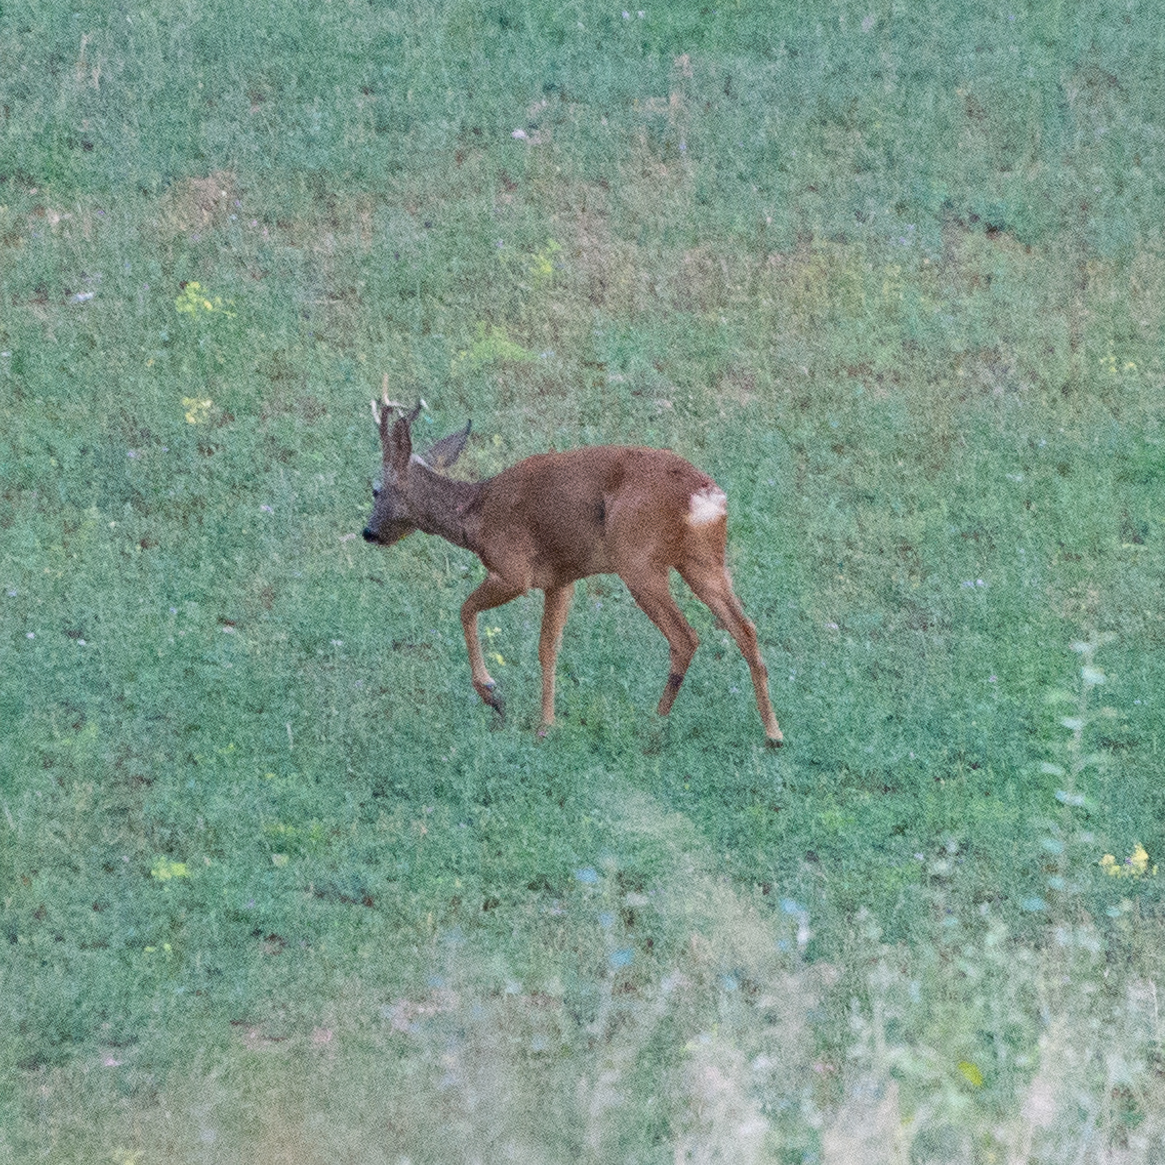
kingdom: Animalia
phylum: Chordata
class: Mammalia
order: Artiodactyla
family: Cervidae
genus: Capreolus
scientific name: Capreolus capreolus
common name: Western roe deer
